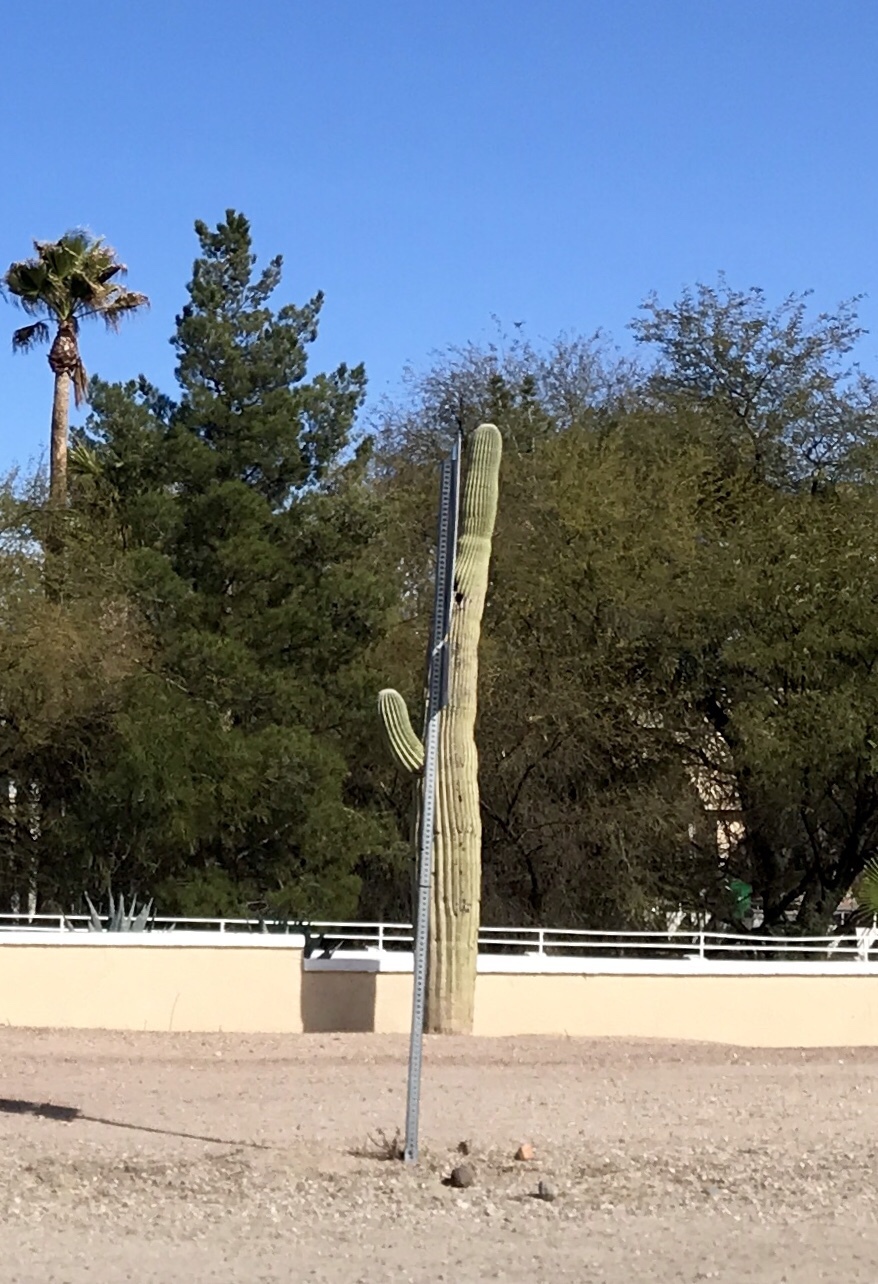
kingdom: Plantae
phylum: Tracheophyta
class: Magnoliopsida
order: Caryophyllales
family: Cactaceae
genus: Carnegiea
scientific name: Carnegiea gigantea
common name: Saguaro
